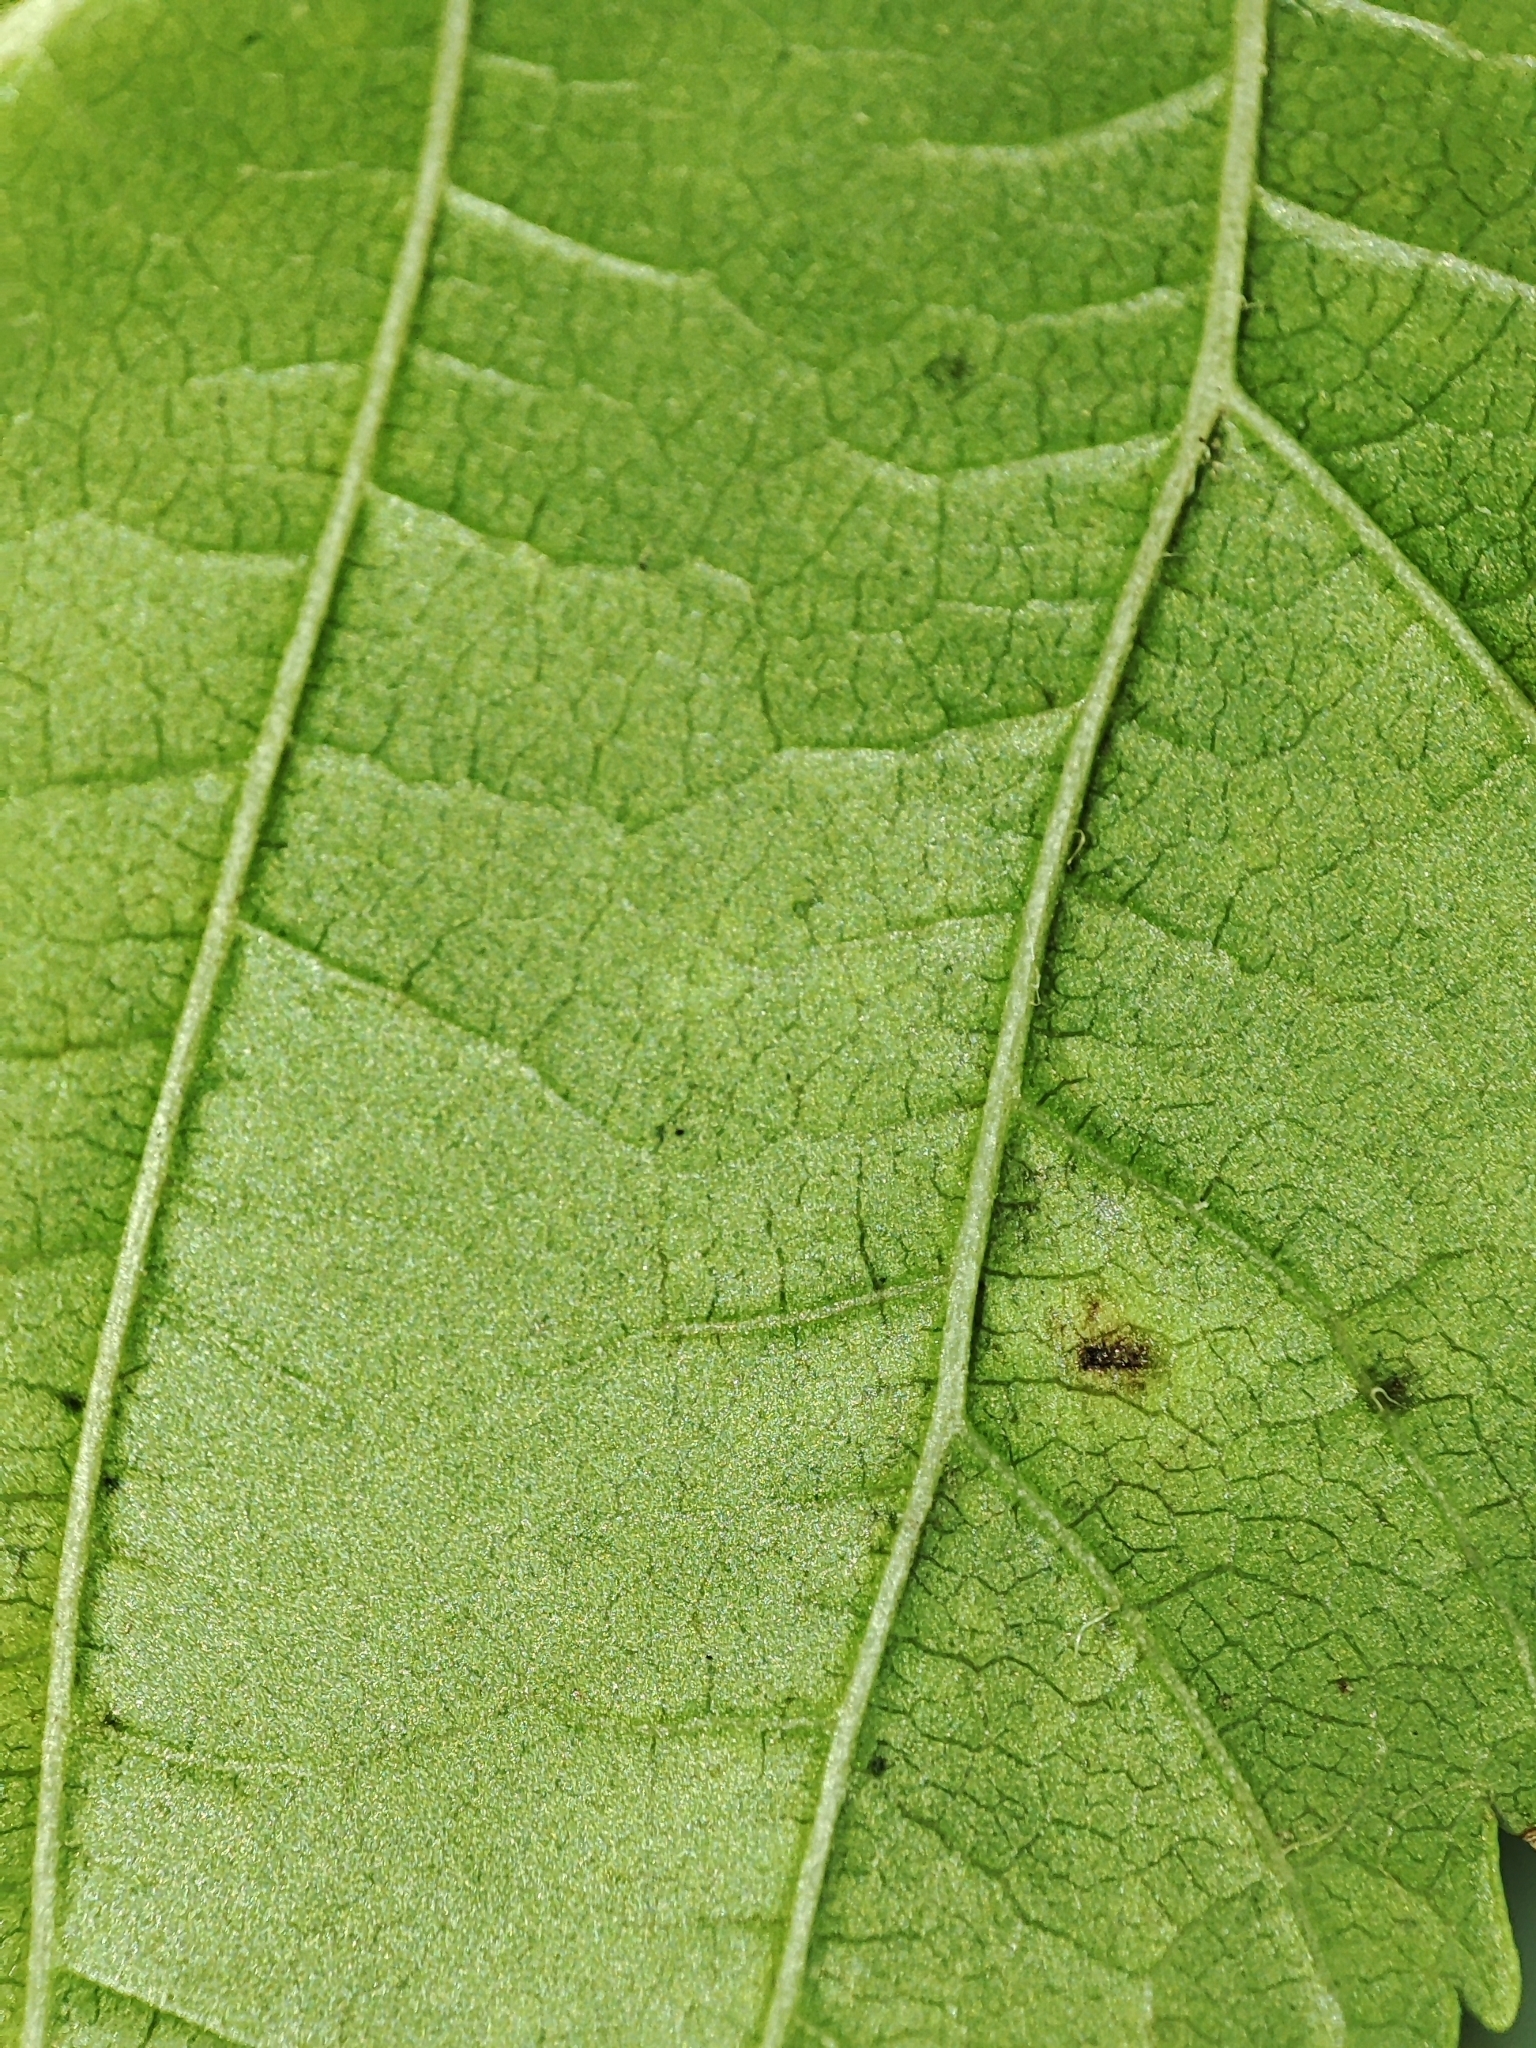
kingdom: Plantae
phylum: Tracheophyta
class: Magnoliopsida
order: Sapindales
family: Sapindaceae
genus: Acer
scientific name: Acer tataricum
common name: Tartar maple
